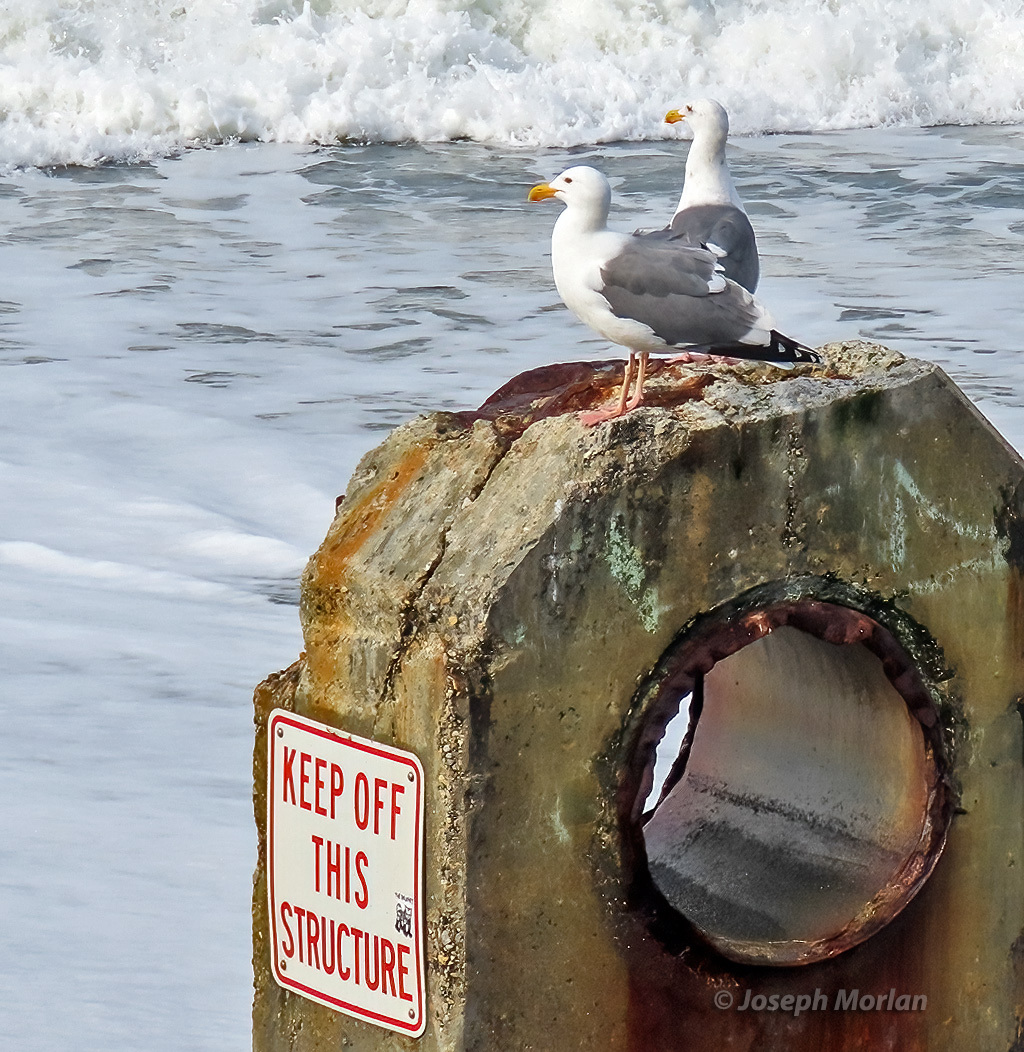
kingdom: Animalia
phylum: Chordata
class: Aves
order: Charadriiformes
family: Laridae
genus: Larus
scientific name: Larus occidentalis
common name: Western gull
